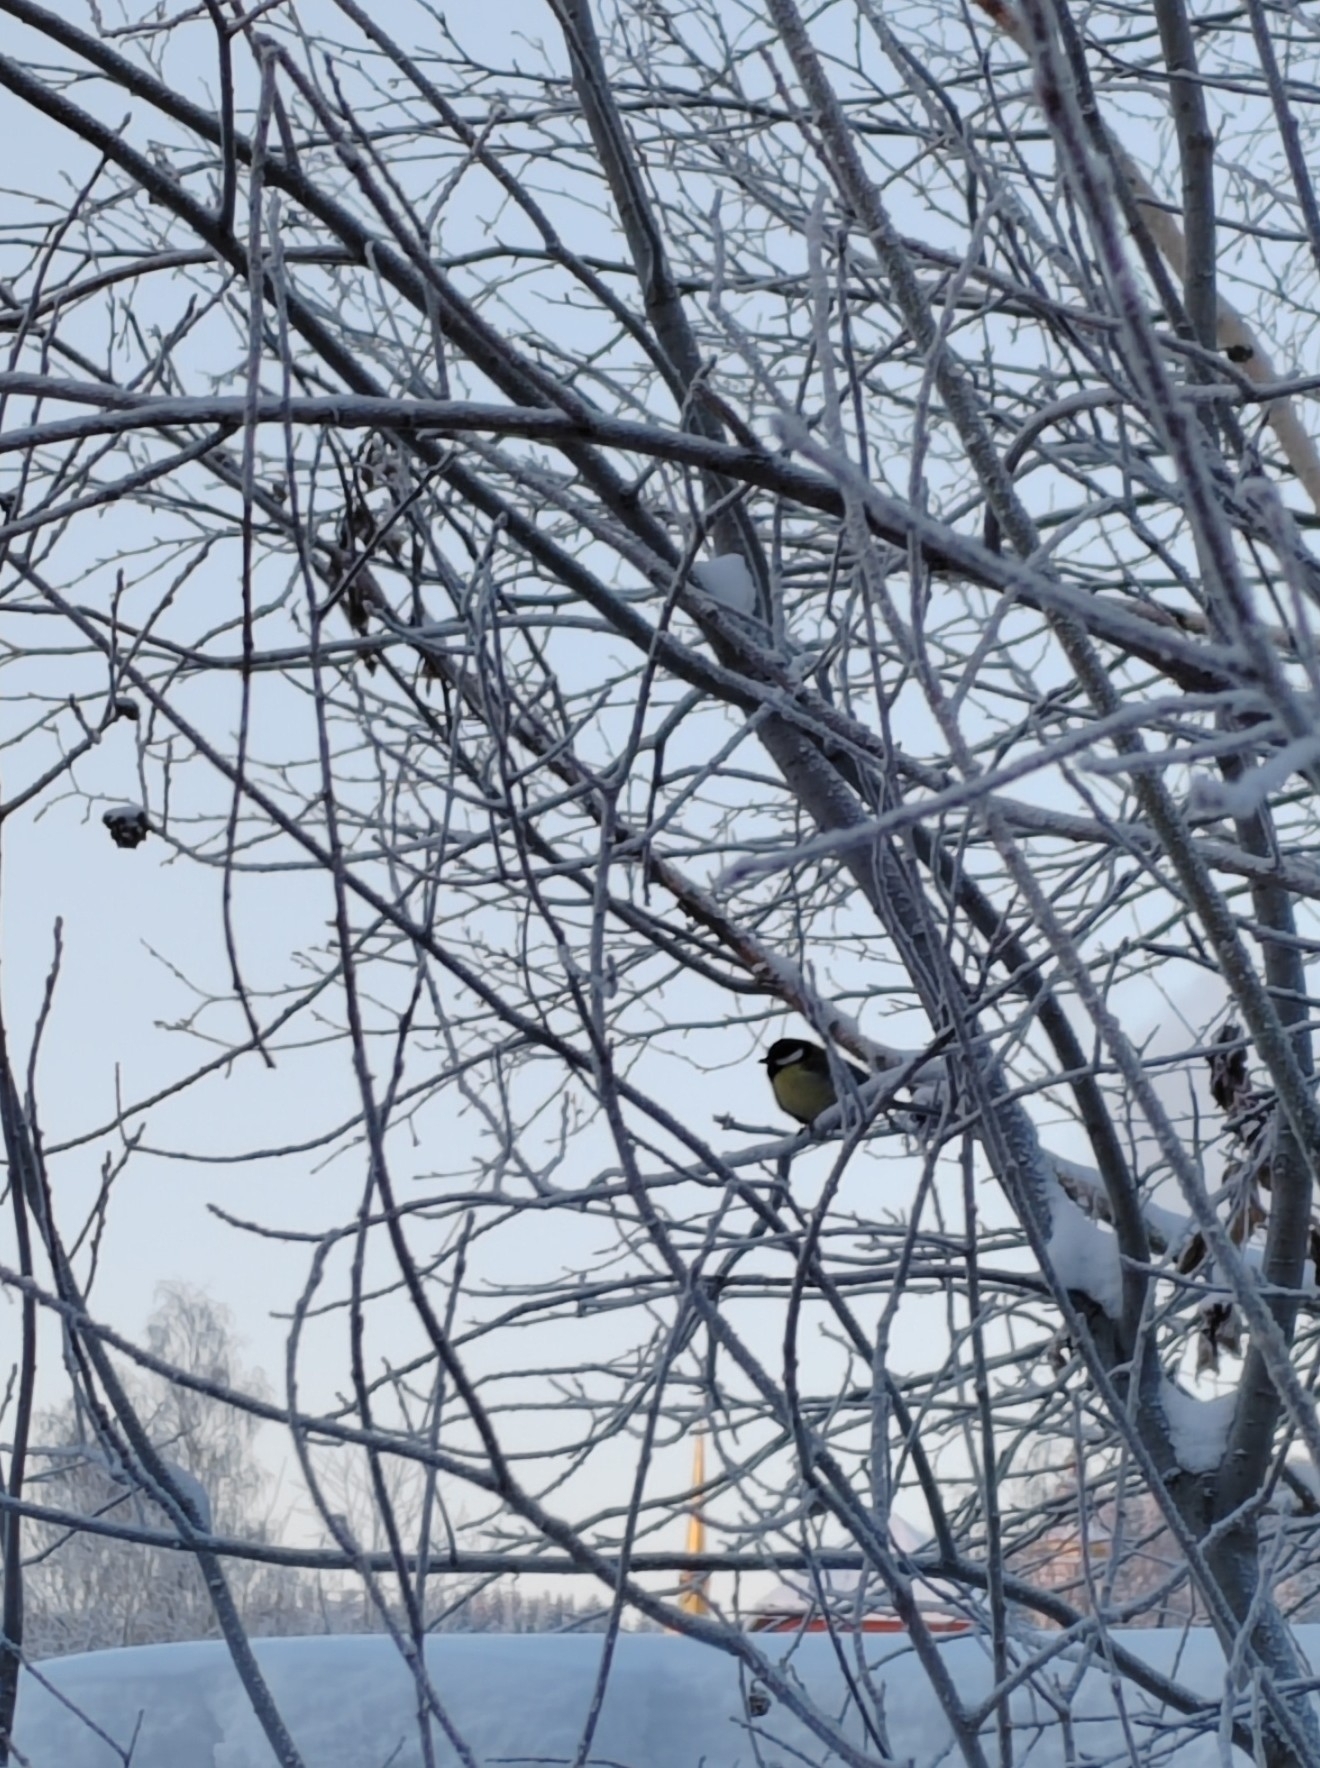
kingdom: Animalia
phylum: Chordata
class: Aves
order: Passeriformes
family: Paridae
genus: Parus
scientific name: Parus major
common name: Great tit
